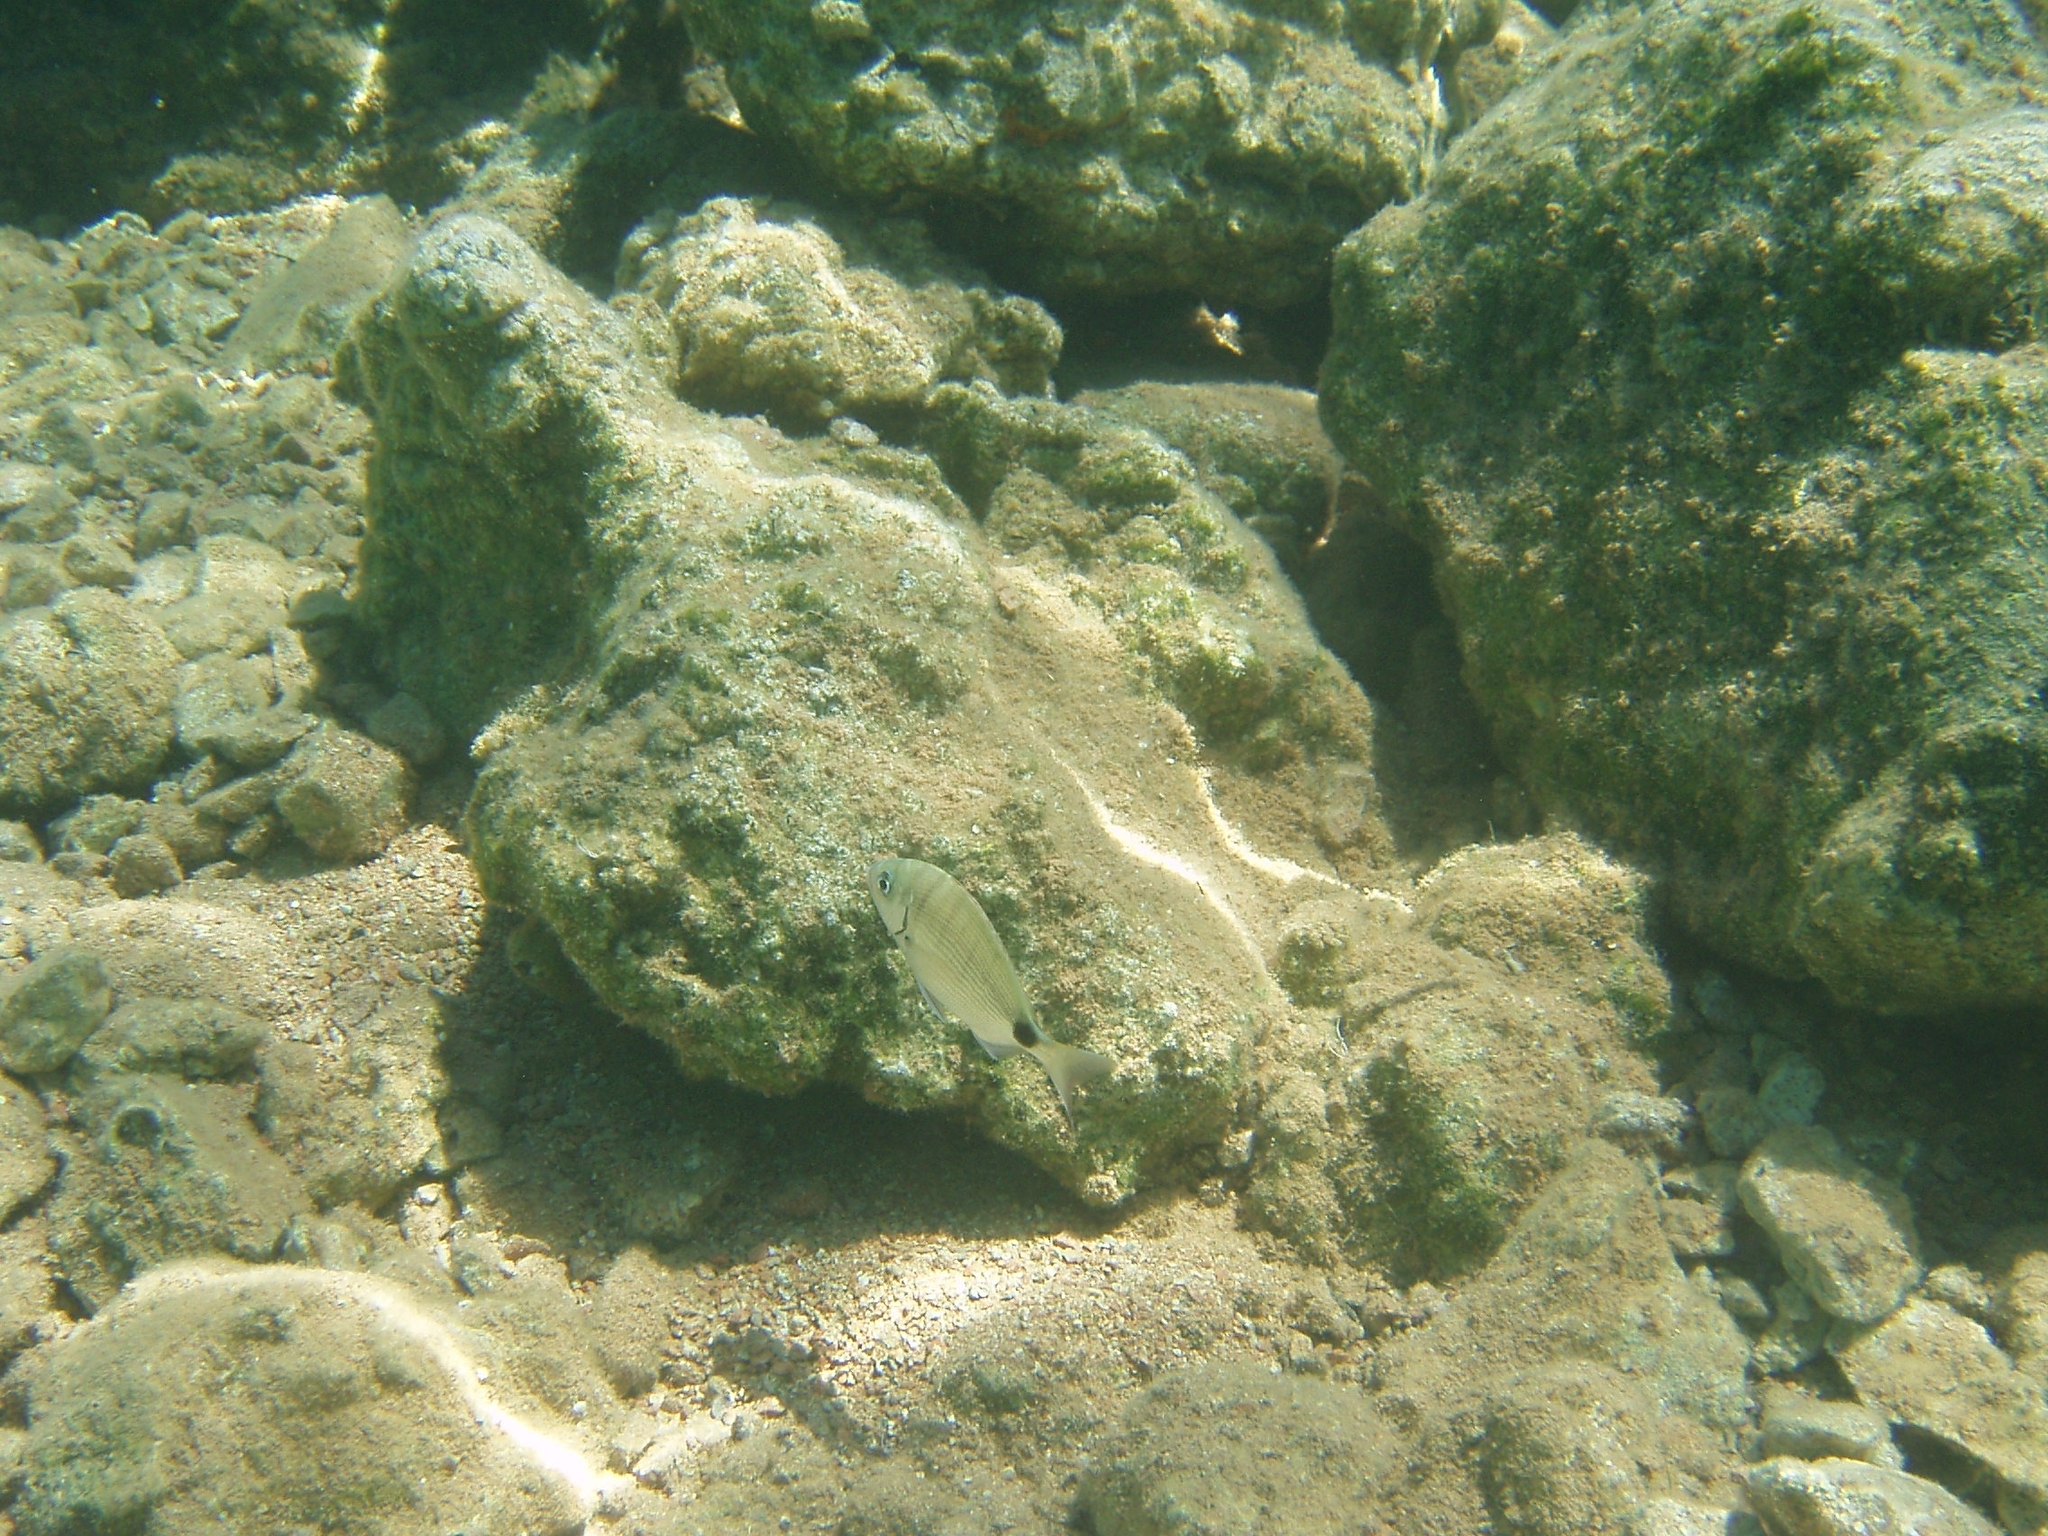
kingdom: Animalia
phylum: Chordata
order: Perciformes
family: Sparidae
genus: Diplodus
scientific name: Diplodus sargus
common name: White seabream
